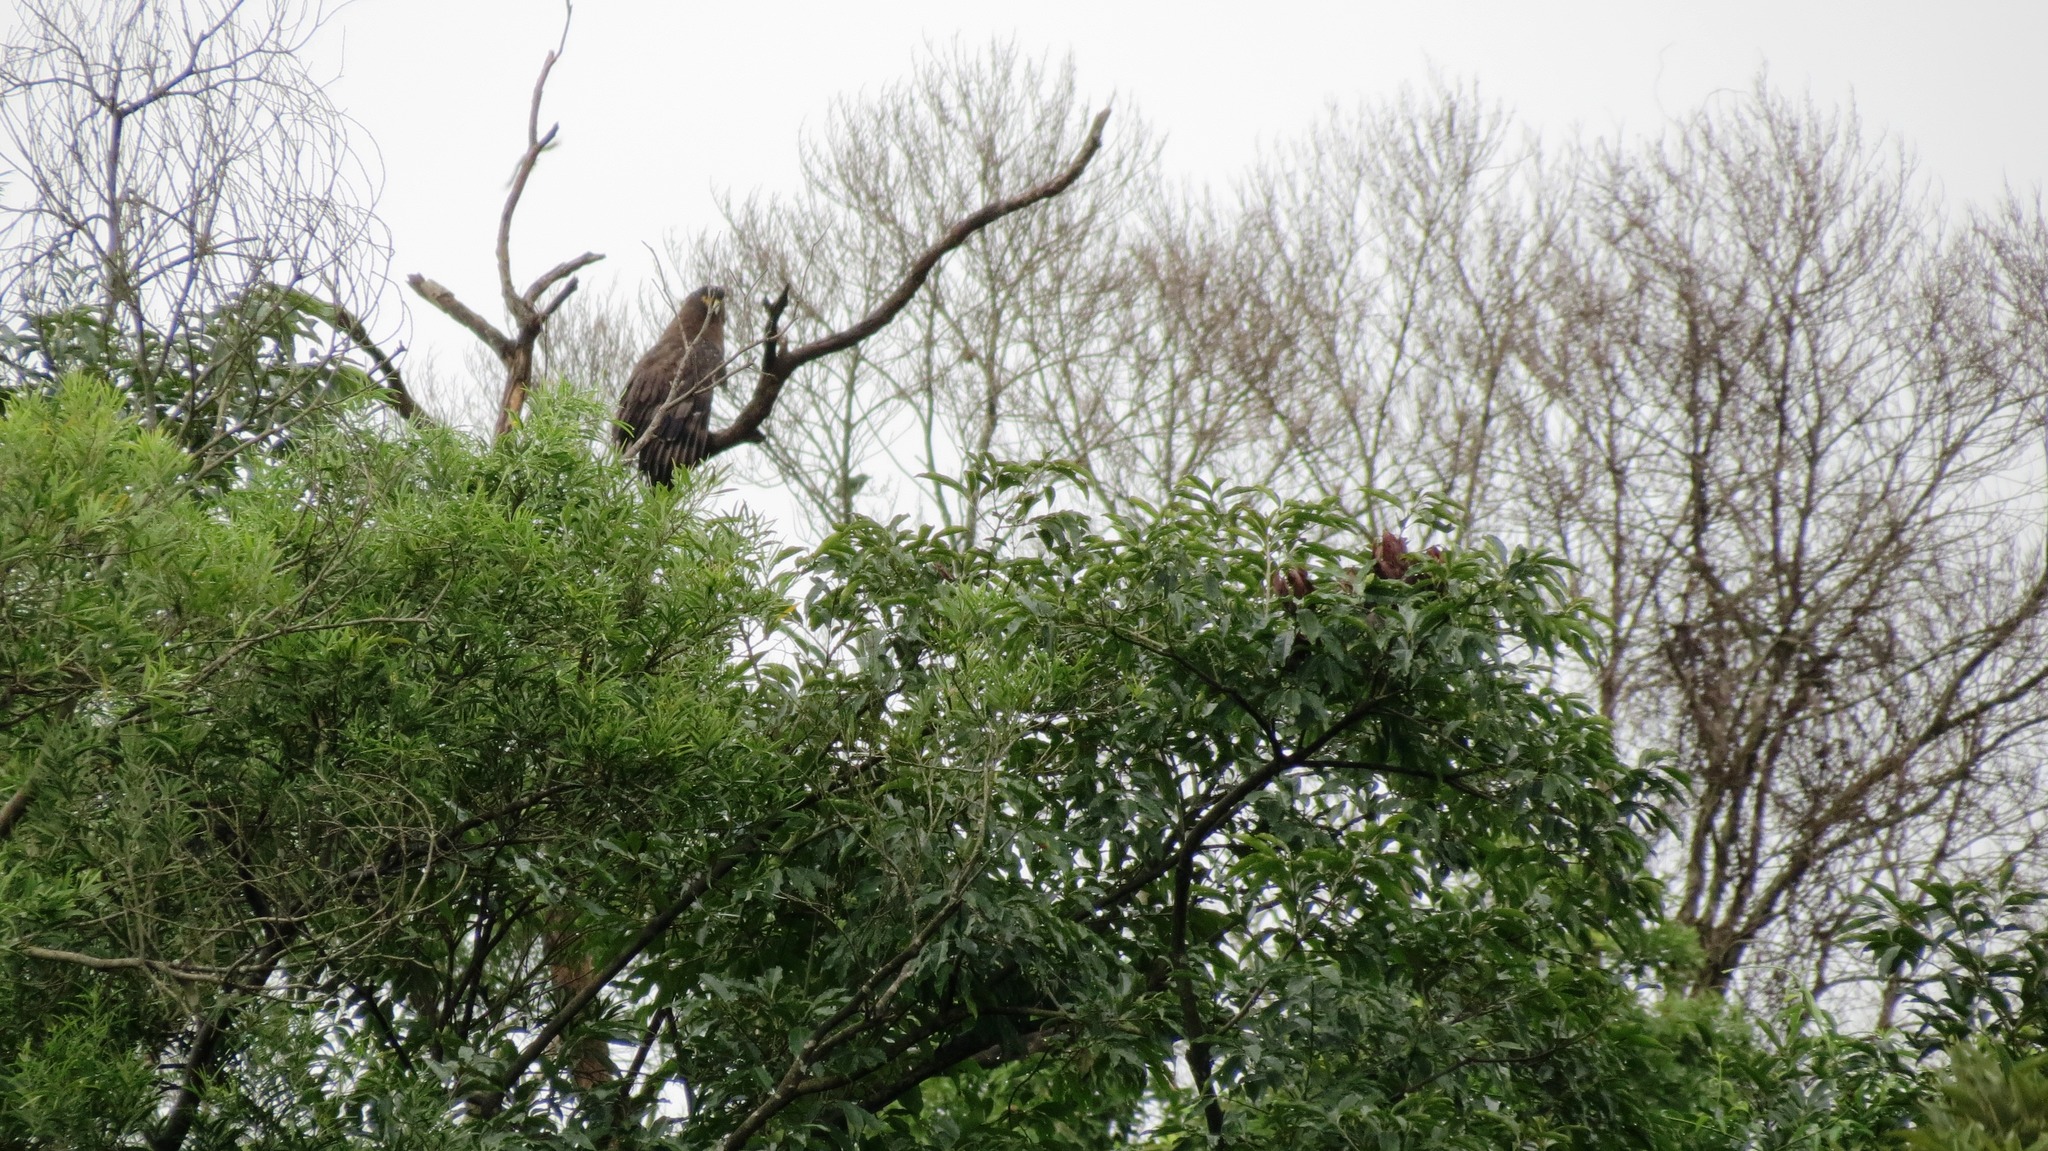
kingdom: Animalia
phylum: Chordata
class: Aves
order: Accipitriformes
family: Accipitridae
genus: Spilornis
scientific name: Spilornis cheela
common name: Crested serpent eagle
